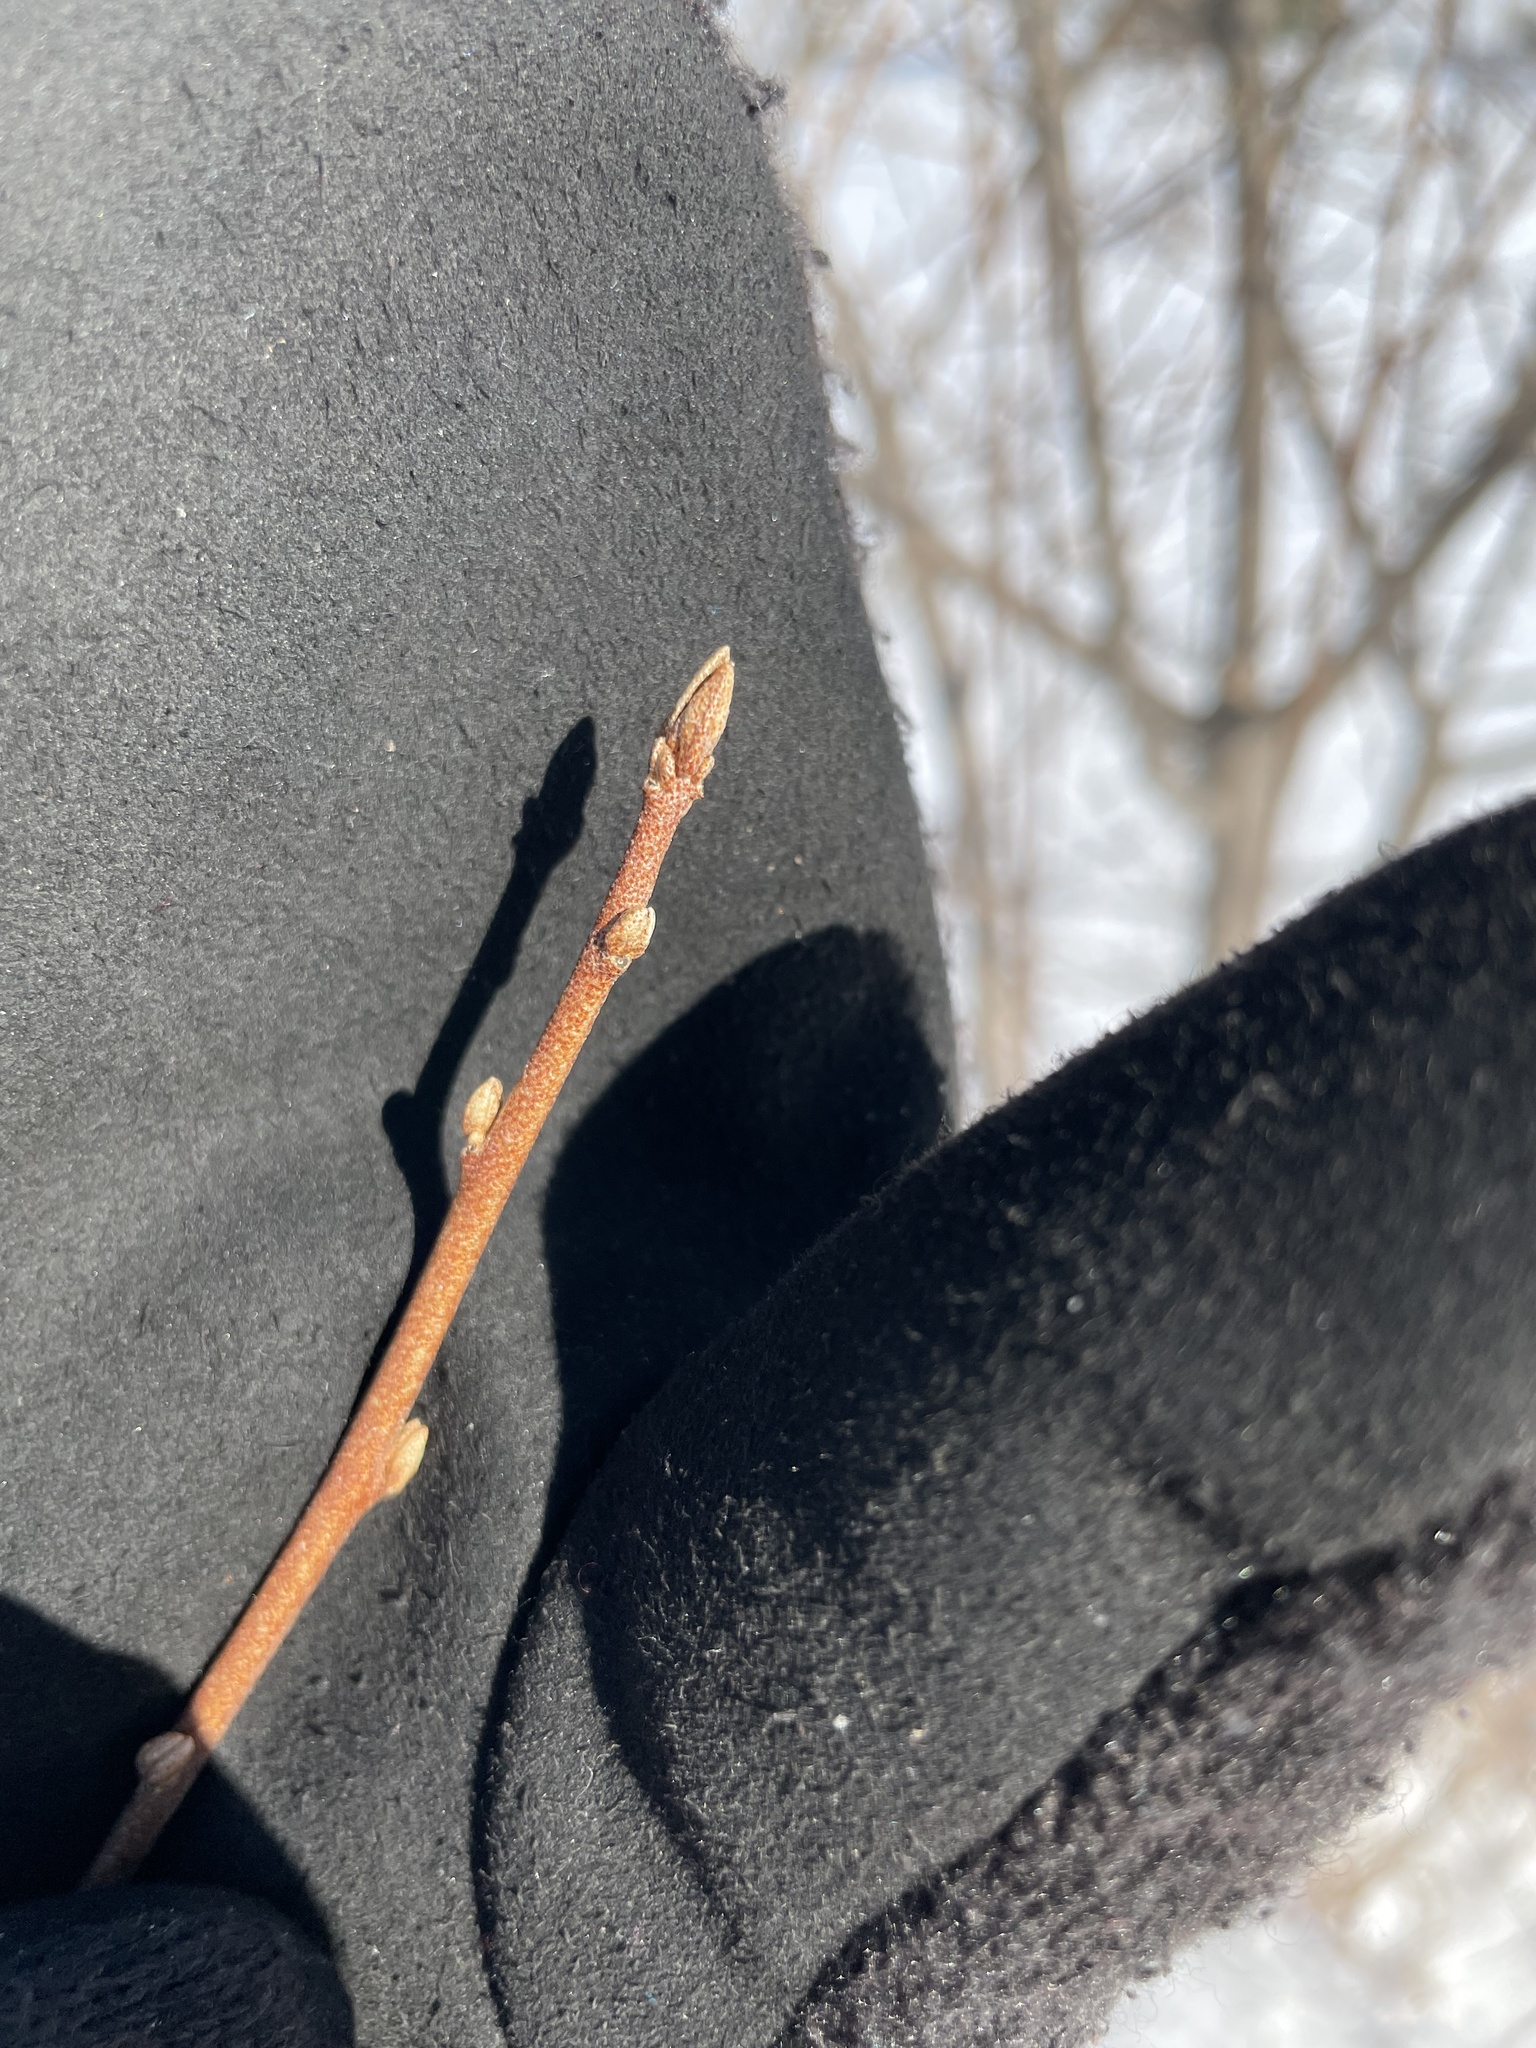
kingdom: Plantae
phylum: Tracheophyta
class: Magnoliopsida
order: Rosales
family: Elaeagnaceae
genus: Elaeagnus
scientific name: Elaeagnus umbellata
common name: Autumn olive
